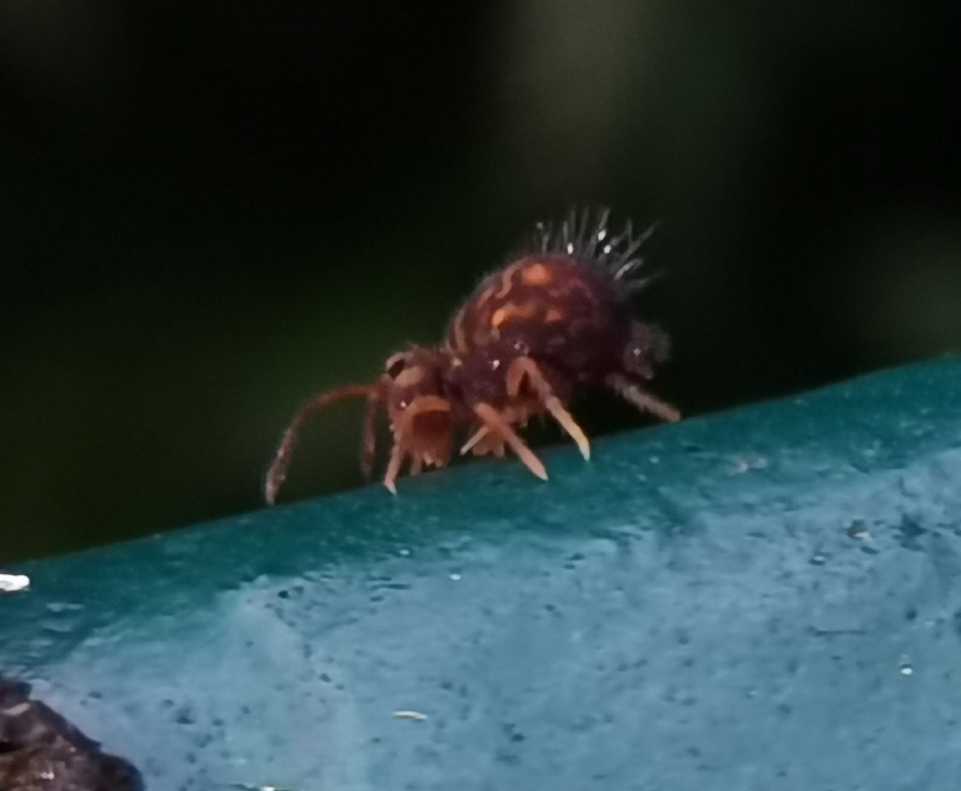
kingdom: Animalia
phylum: Arthropoda
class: Collembola
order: Symphypleona
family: Dicyrtomidae
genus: Dicyrtomina
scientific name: Dicyrtomina ornata
